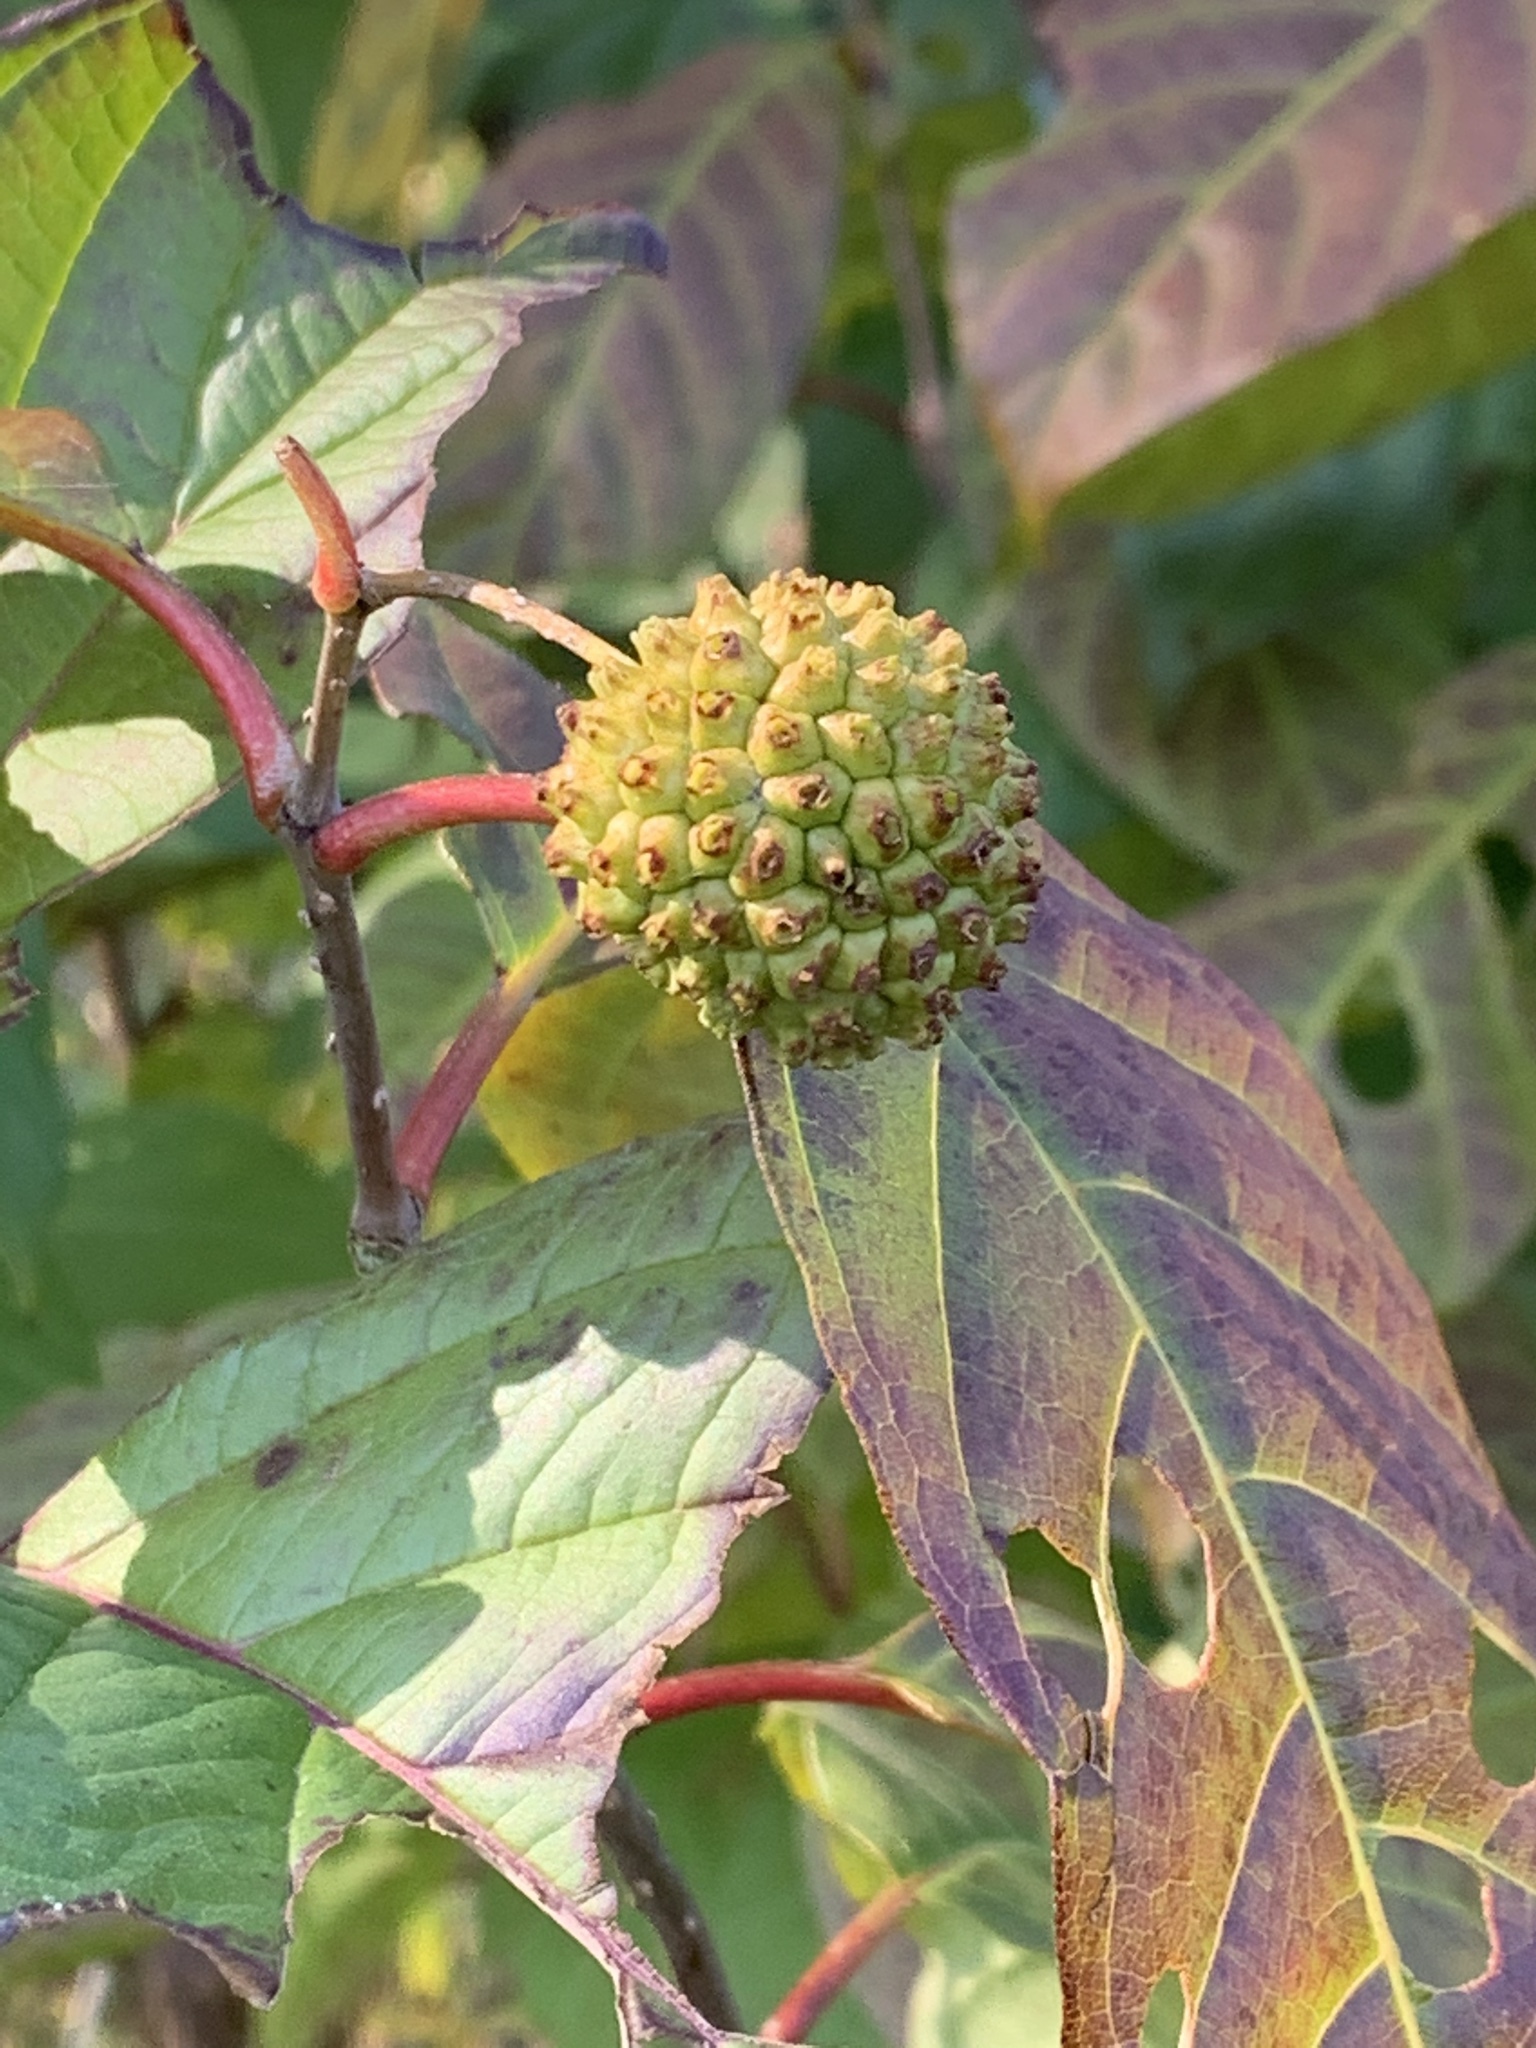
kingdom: Plantae
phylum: Tracheophyta
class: Magnoliopsida
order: Gentianales
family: Rubiaceae
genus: Cephalanthus
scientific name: Cephalanthus occidentalis
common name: Button-willow
